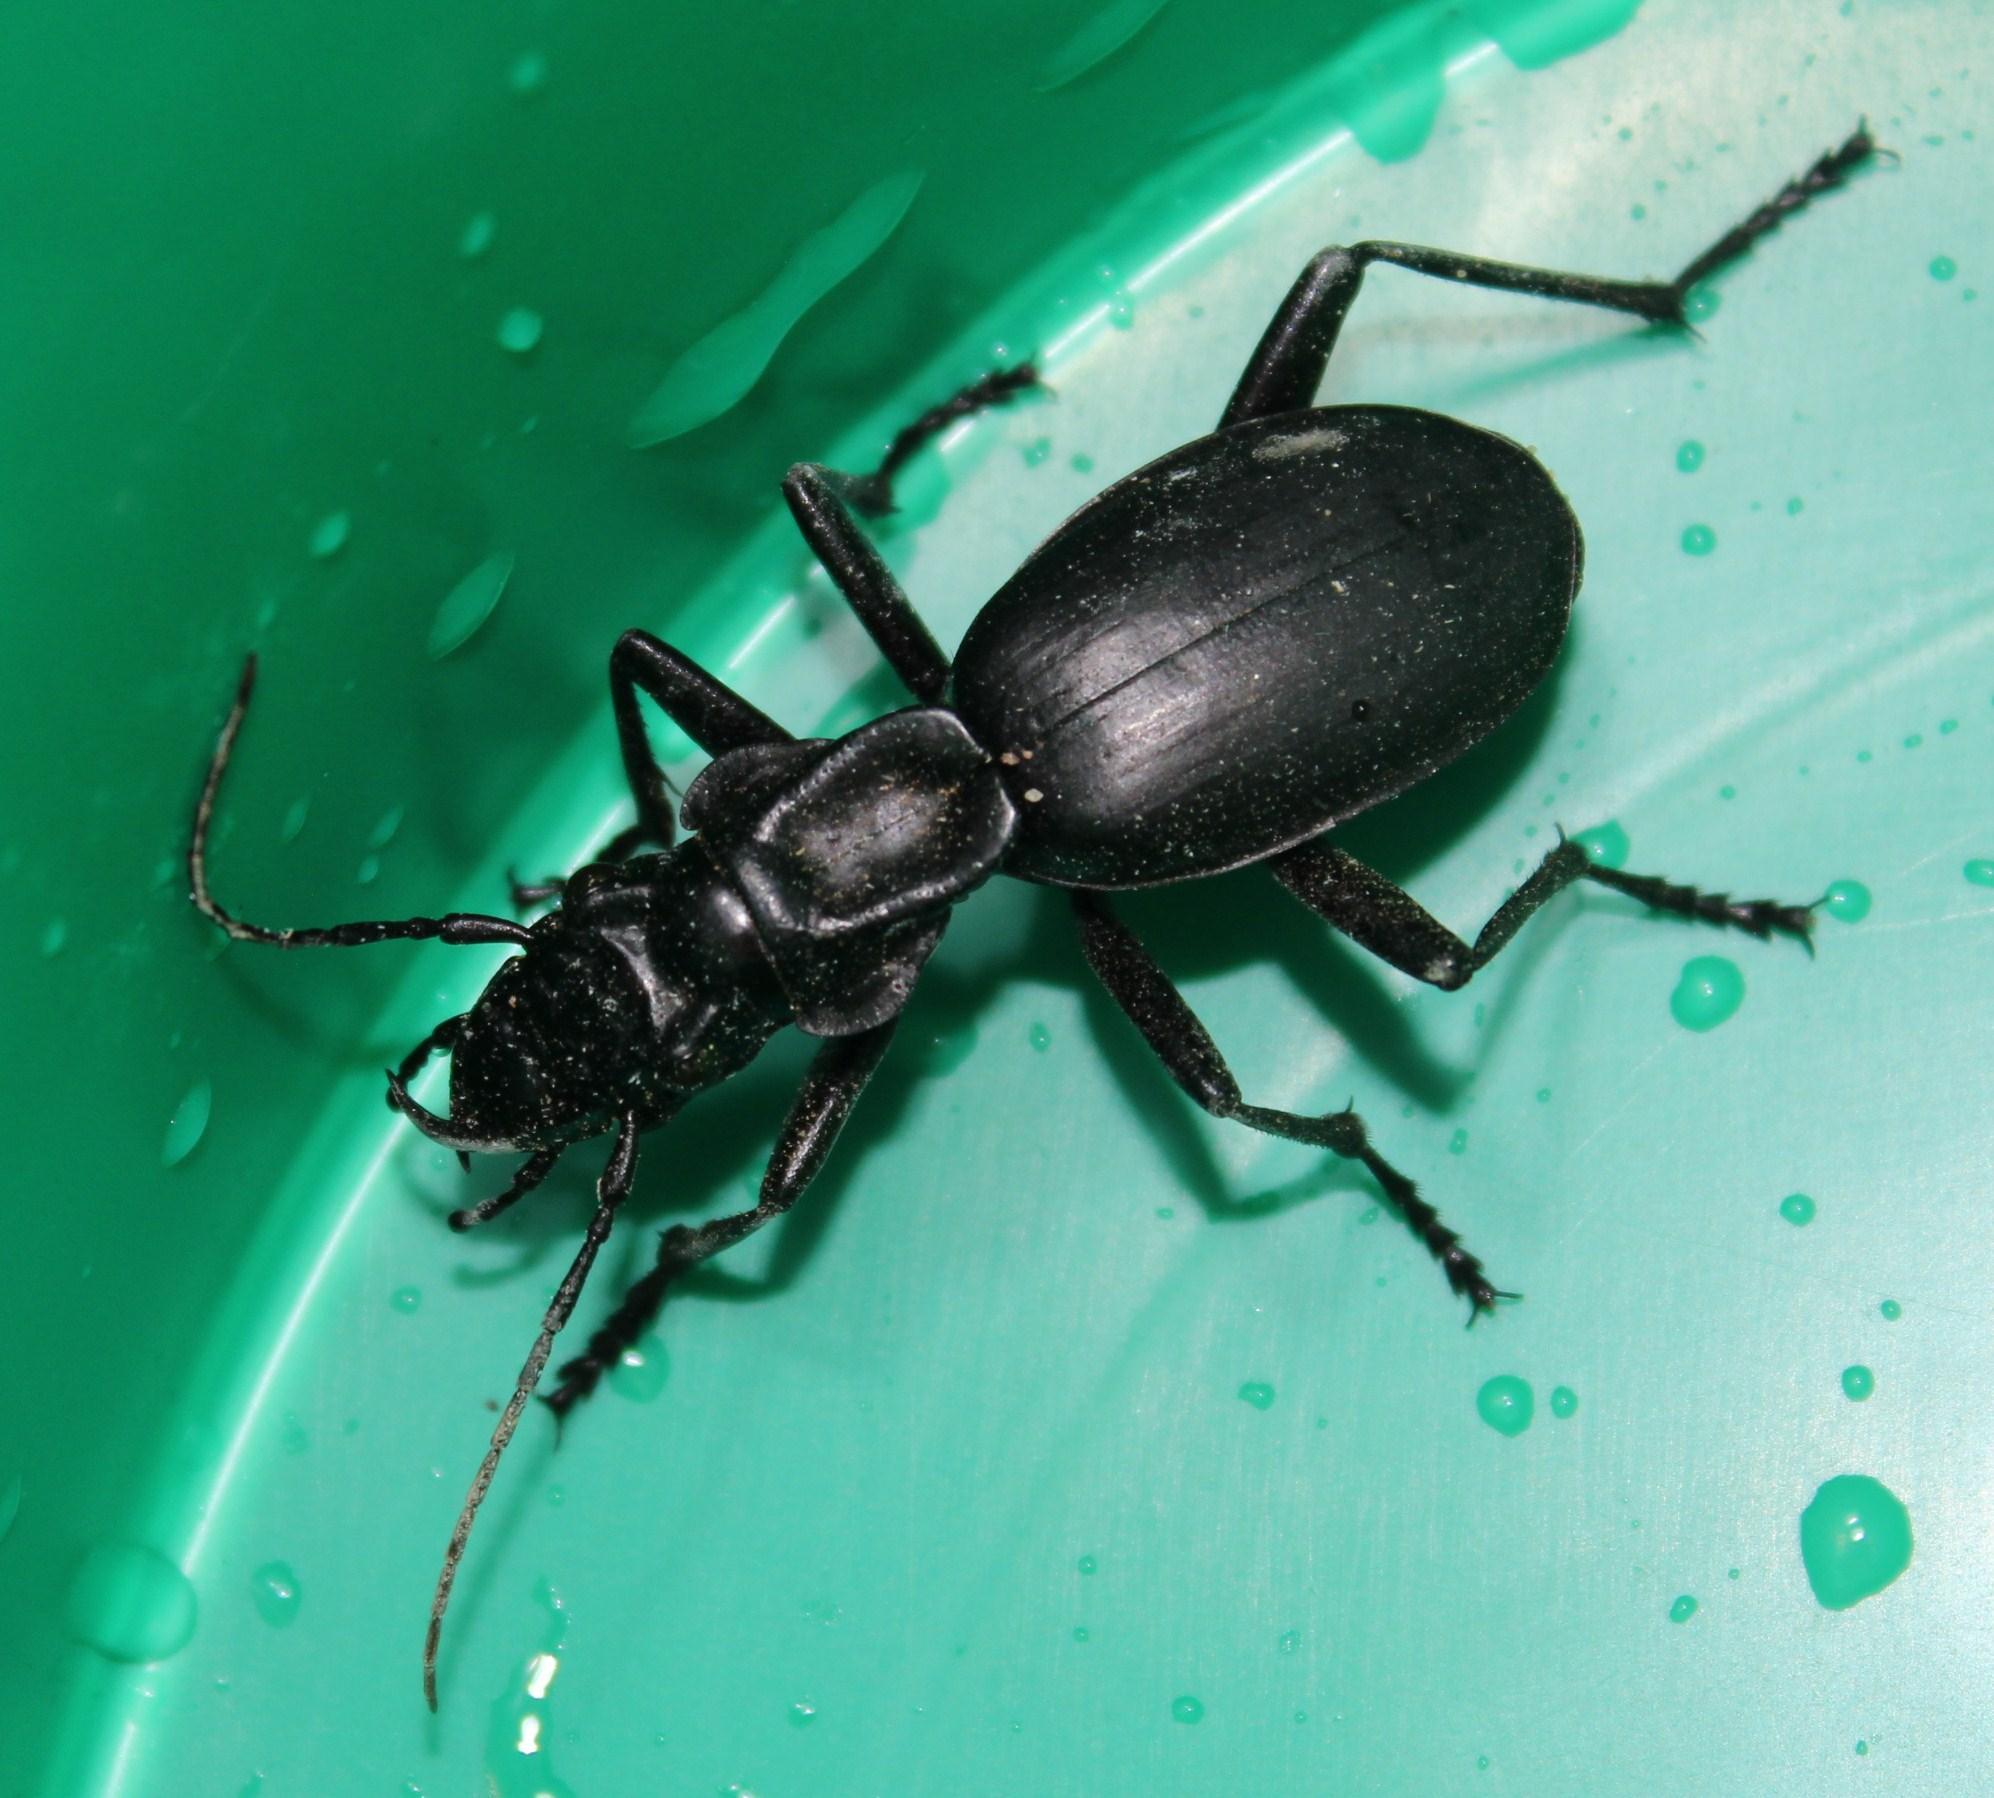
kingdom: Animalia
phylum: Arthropoda
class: Insecta
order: Coleoptera
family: Carabidae
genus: Anthia
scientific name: Anthia maxillosa
